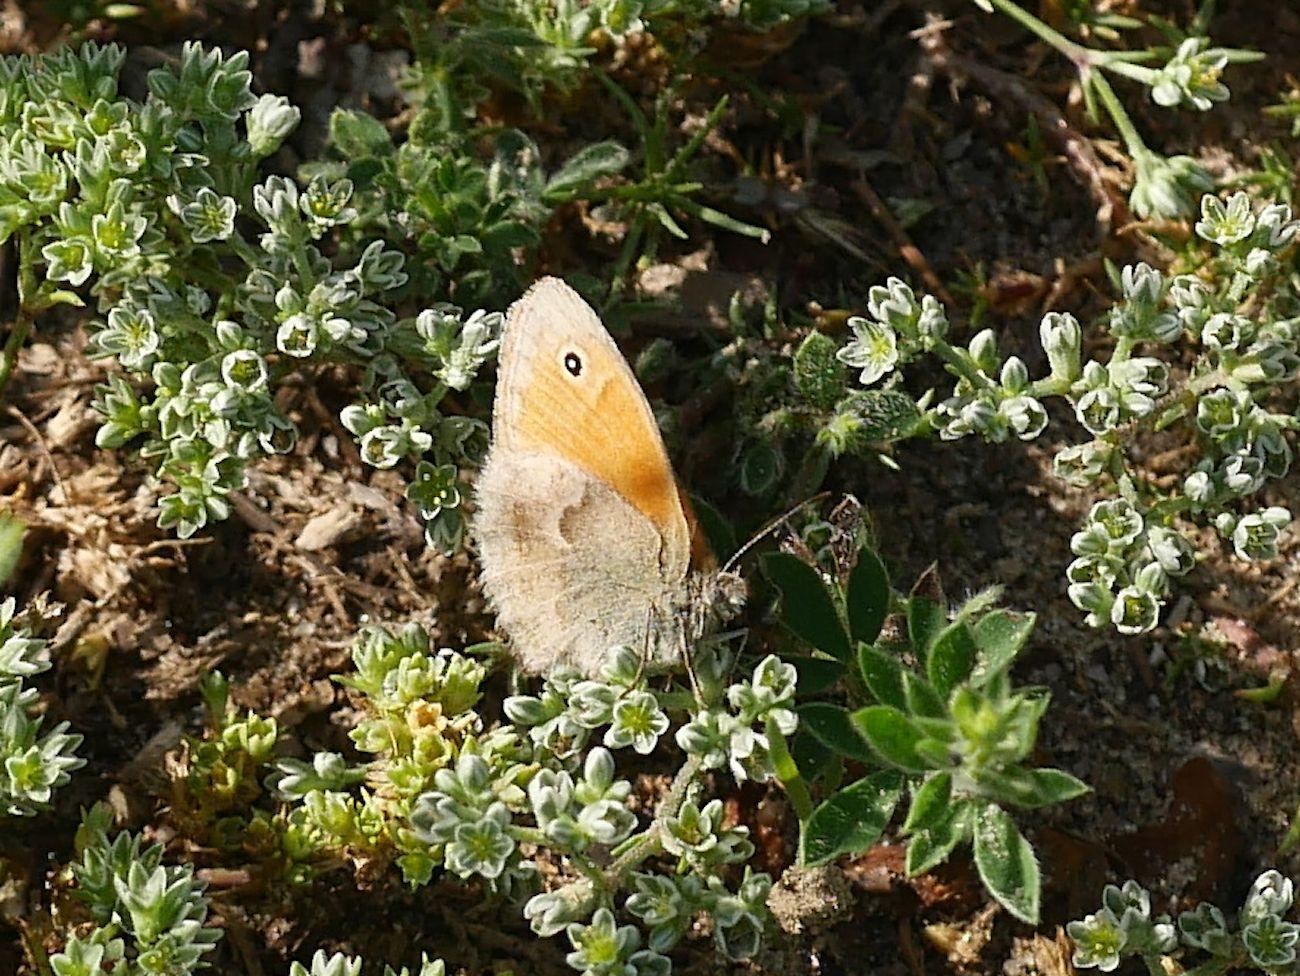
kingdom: Animalia
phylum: Arthropoda
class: Insecta
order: Lepidoptera
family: Nymphalidae
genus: Coenonympha
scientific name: Coenonympha pamphilus
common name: Small heath
